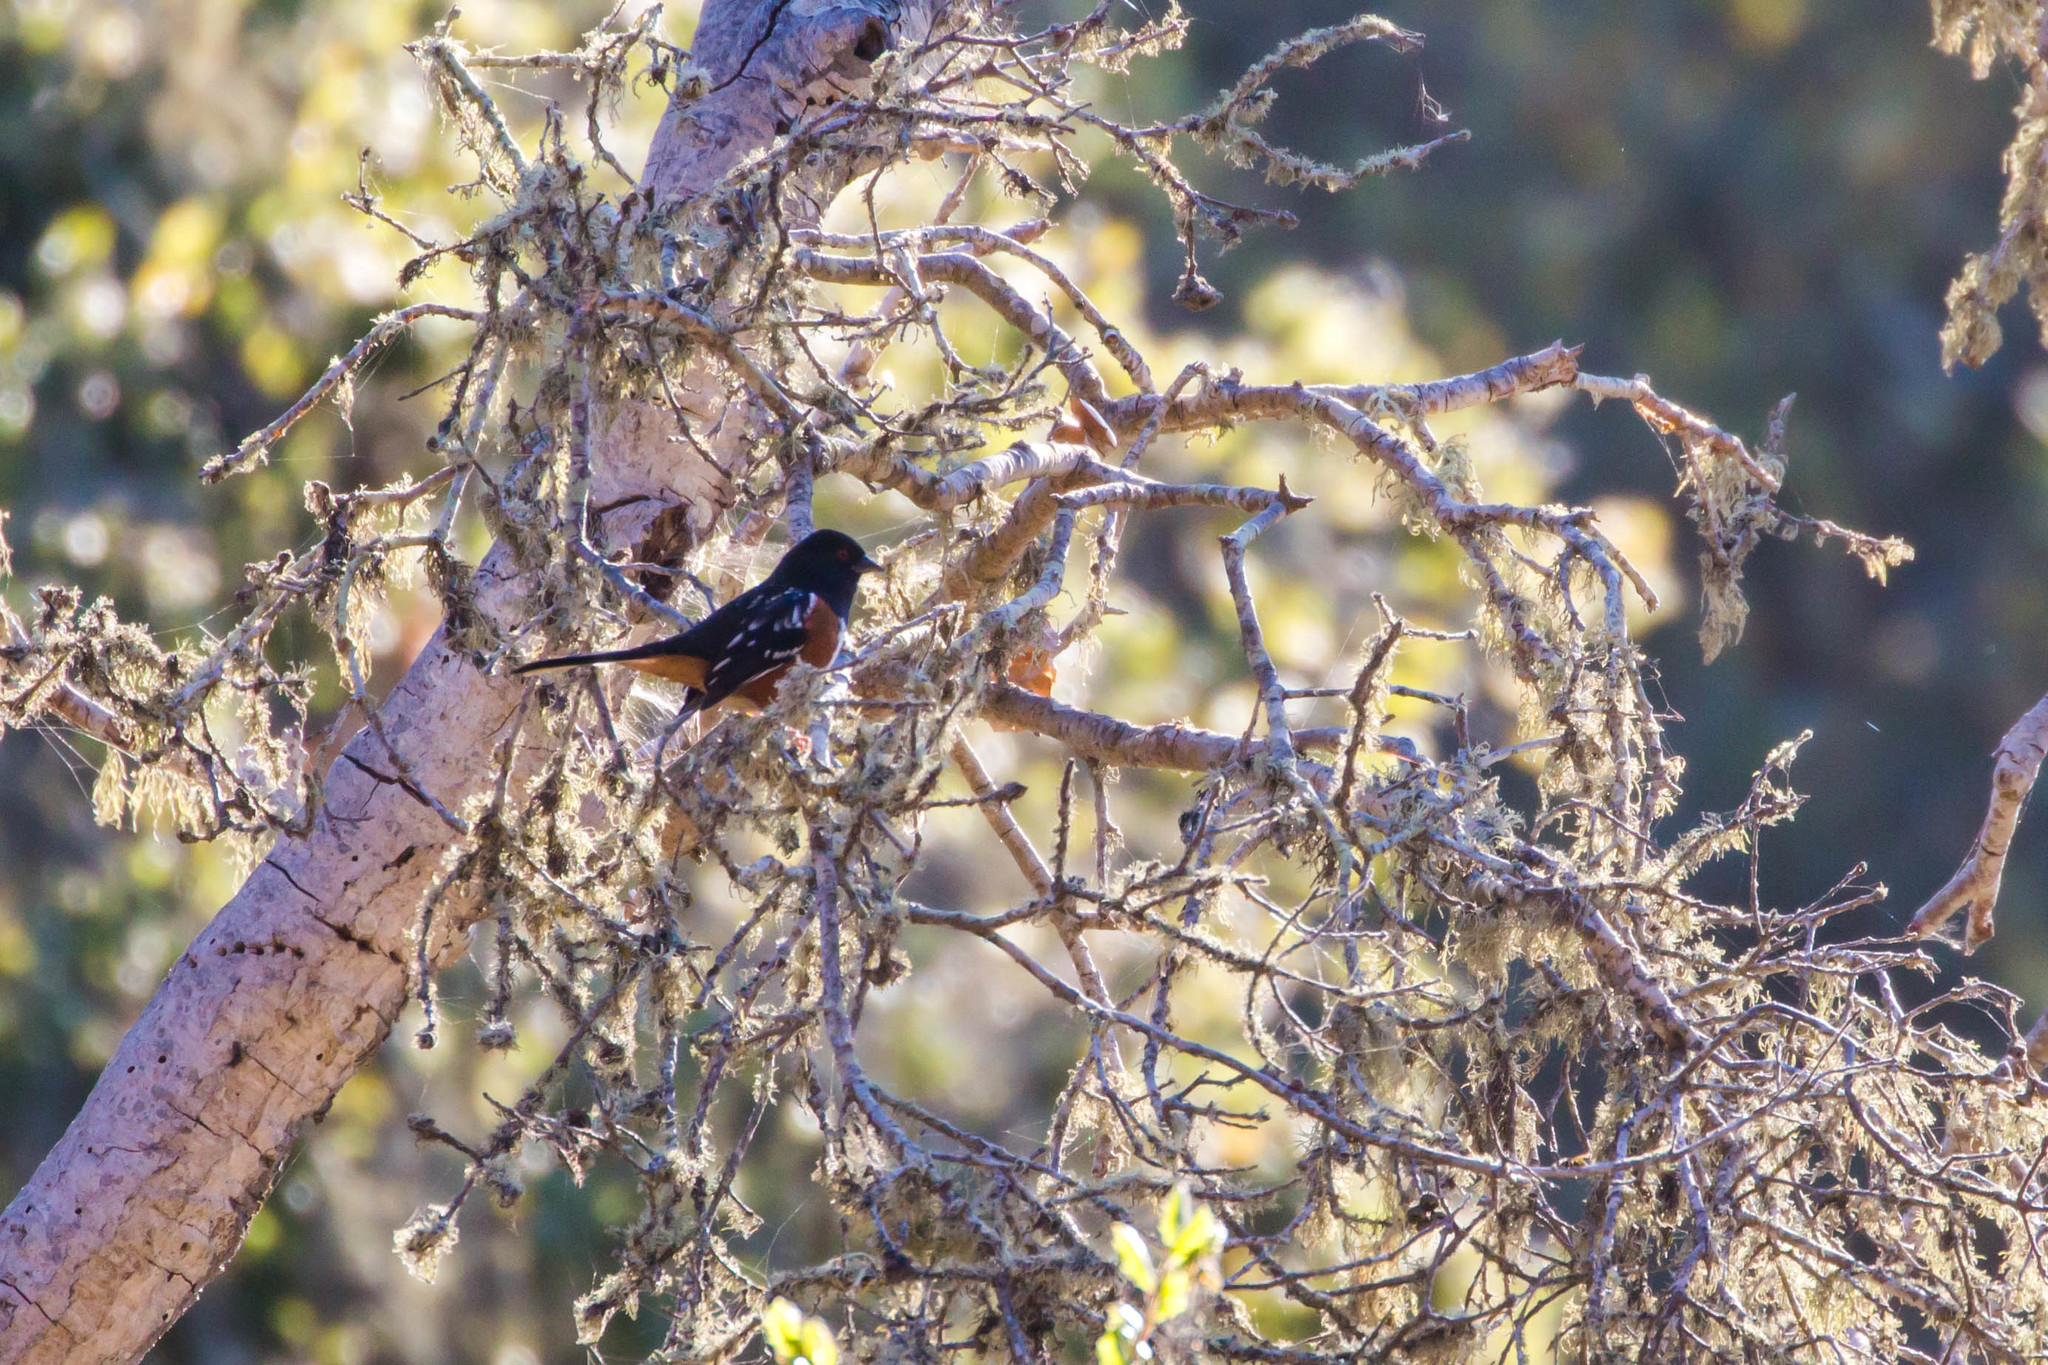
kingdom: Animalia
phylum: Chordata
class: Aves
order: Passeriformes
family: Passerellidae
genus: Pipilo
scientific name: Pipilo maculatus
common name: Spotted towhee
